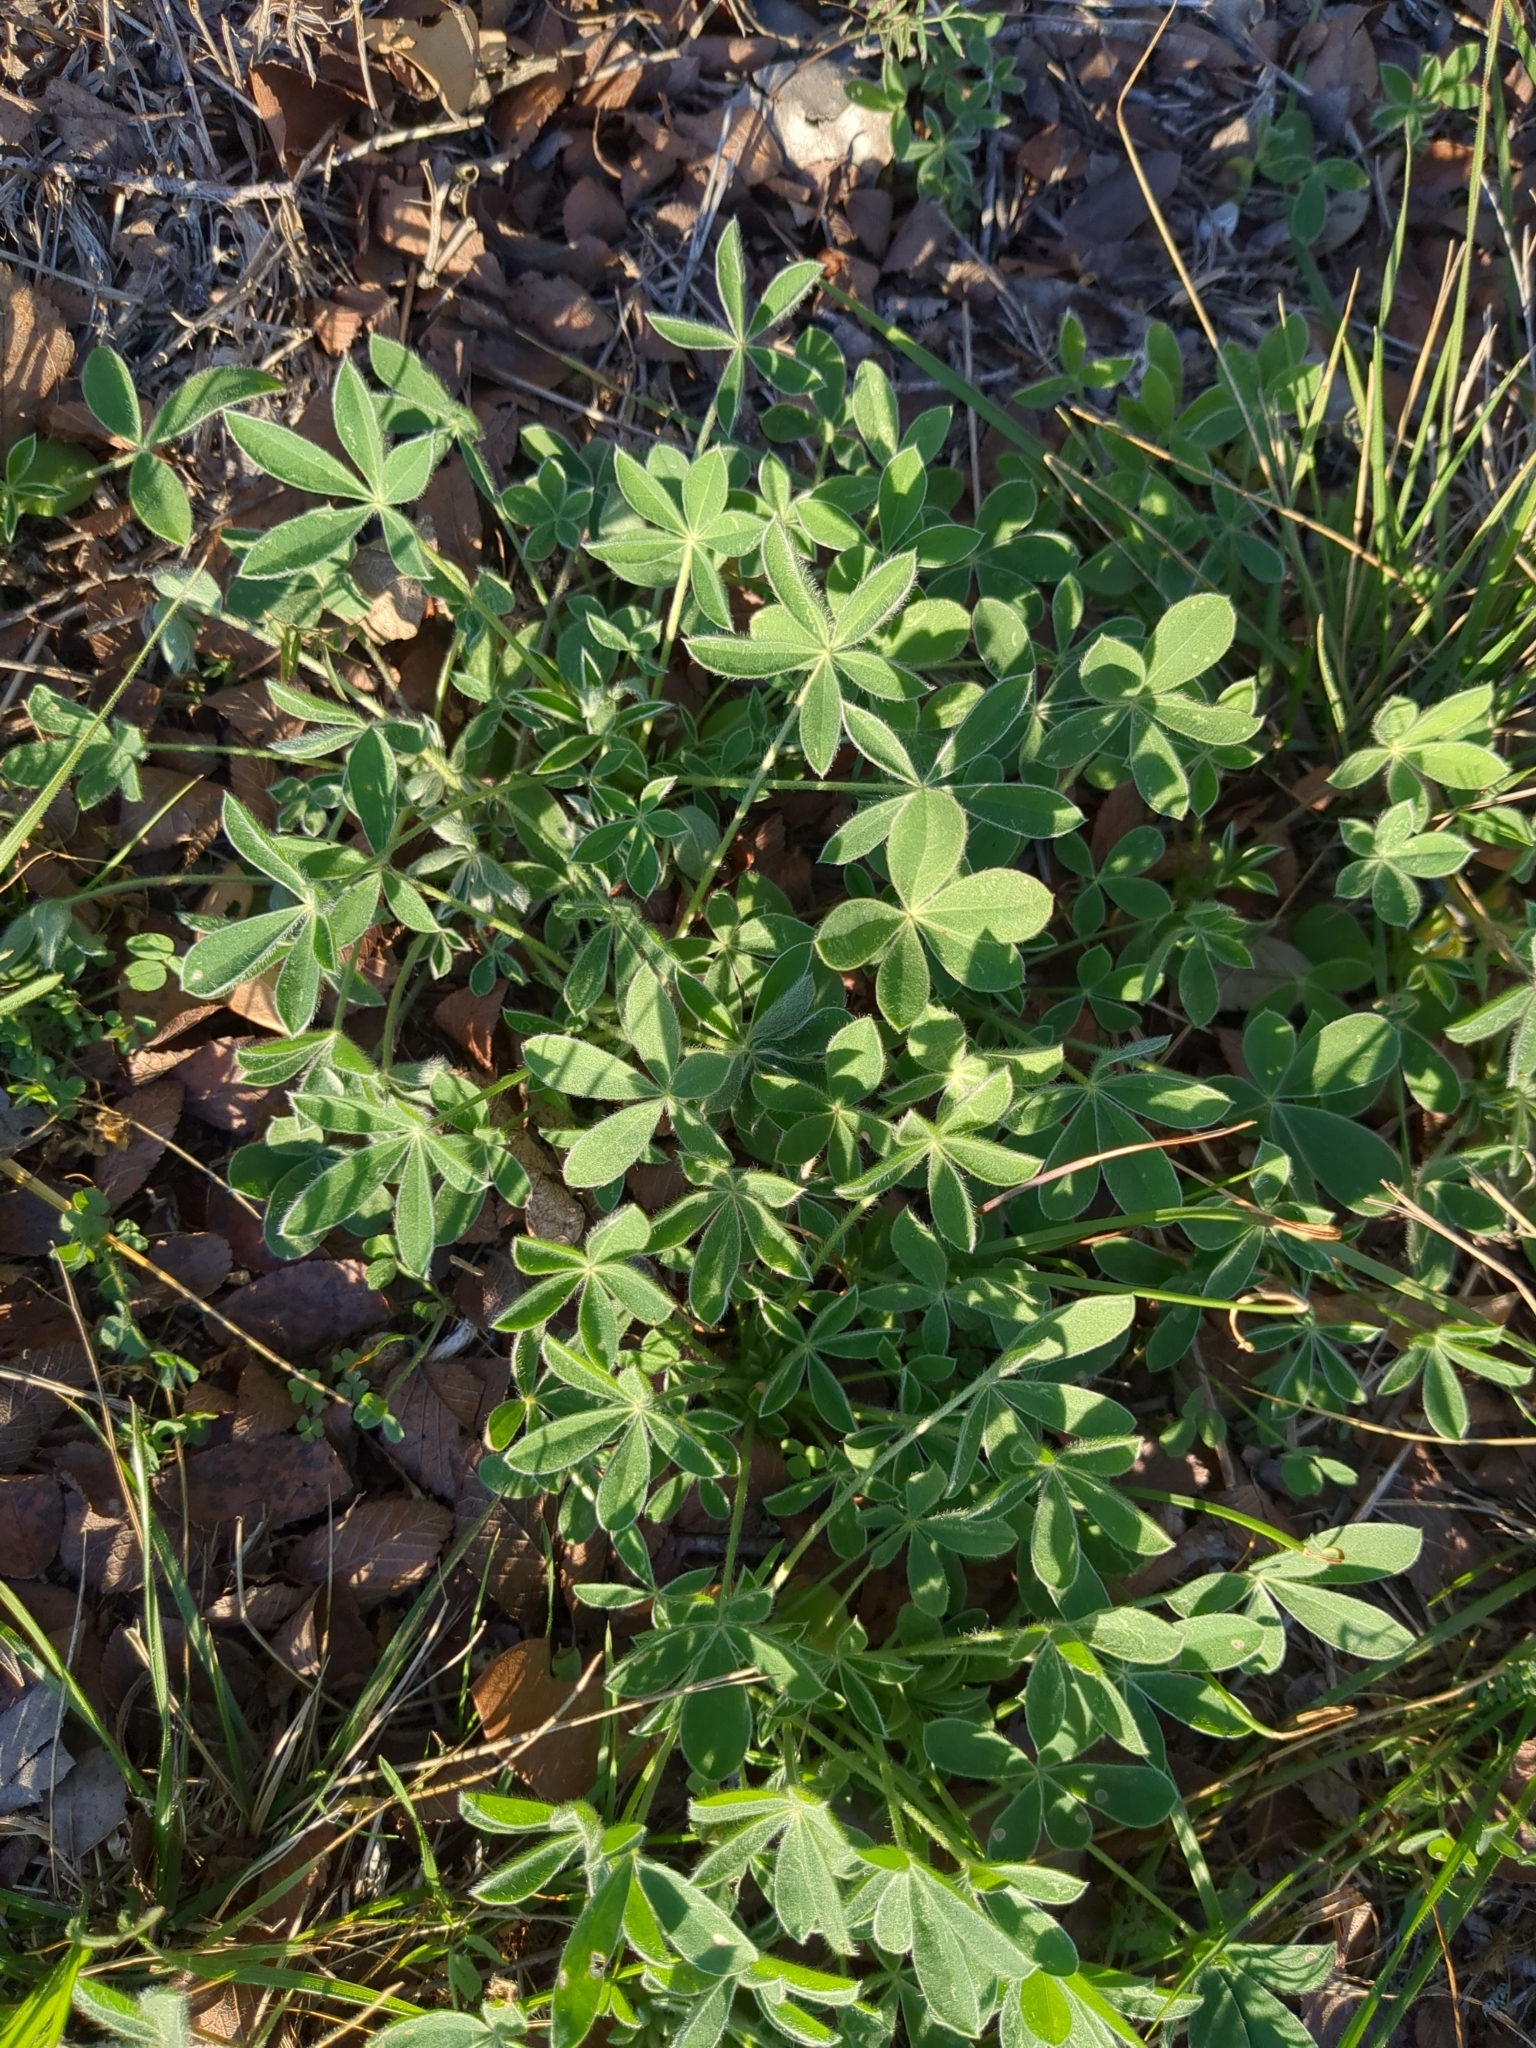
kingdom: Plantae
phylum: Tracheophyta
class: Magnoliopsida
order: Fabales
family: Fabaceae
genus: Lupinus
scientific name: Lupinus texensis
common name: Texas bluebonnet
